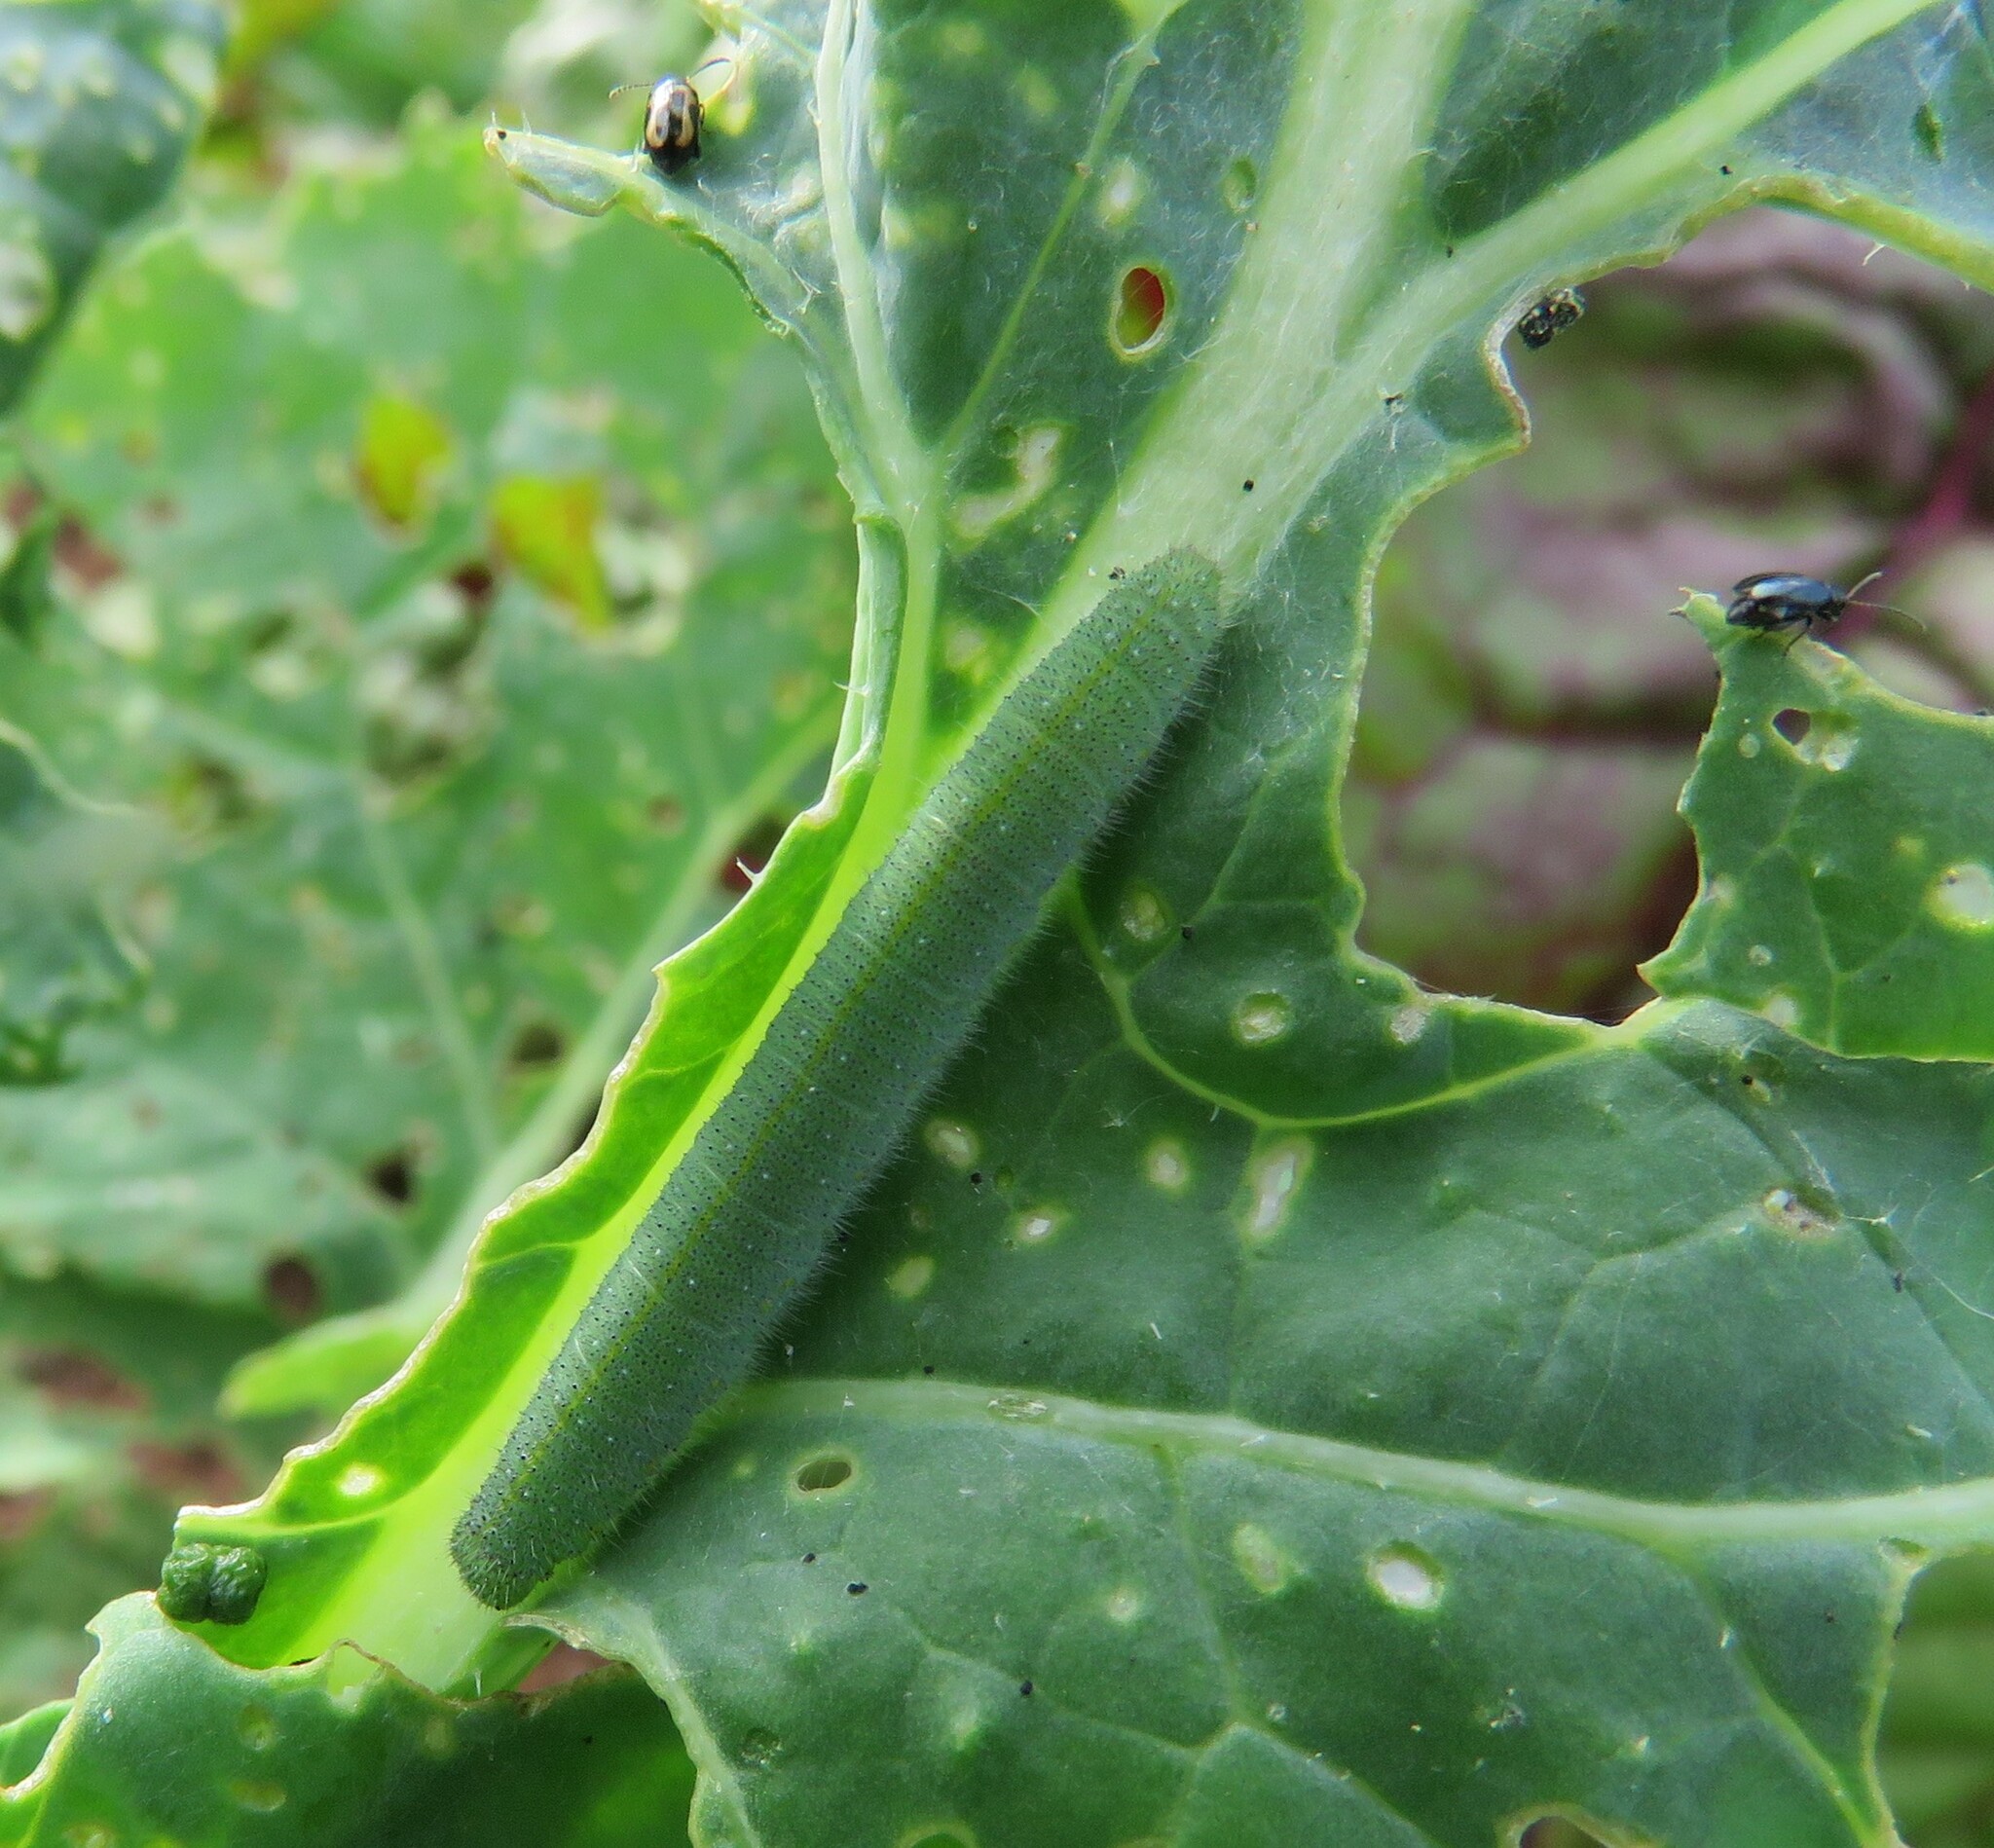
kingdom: Animalia
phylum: Arthropoda
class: Insecta
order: Lepidoptera
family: Pieridae
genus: Pieris
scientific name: Pieris rapae
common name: Small white
